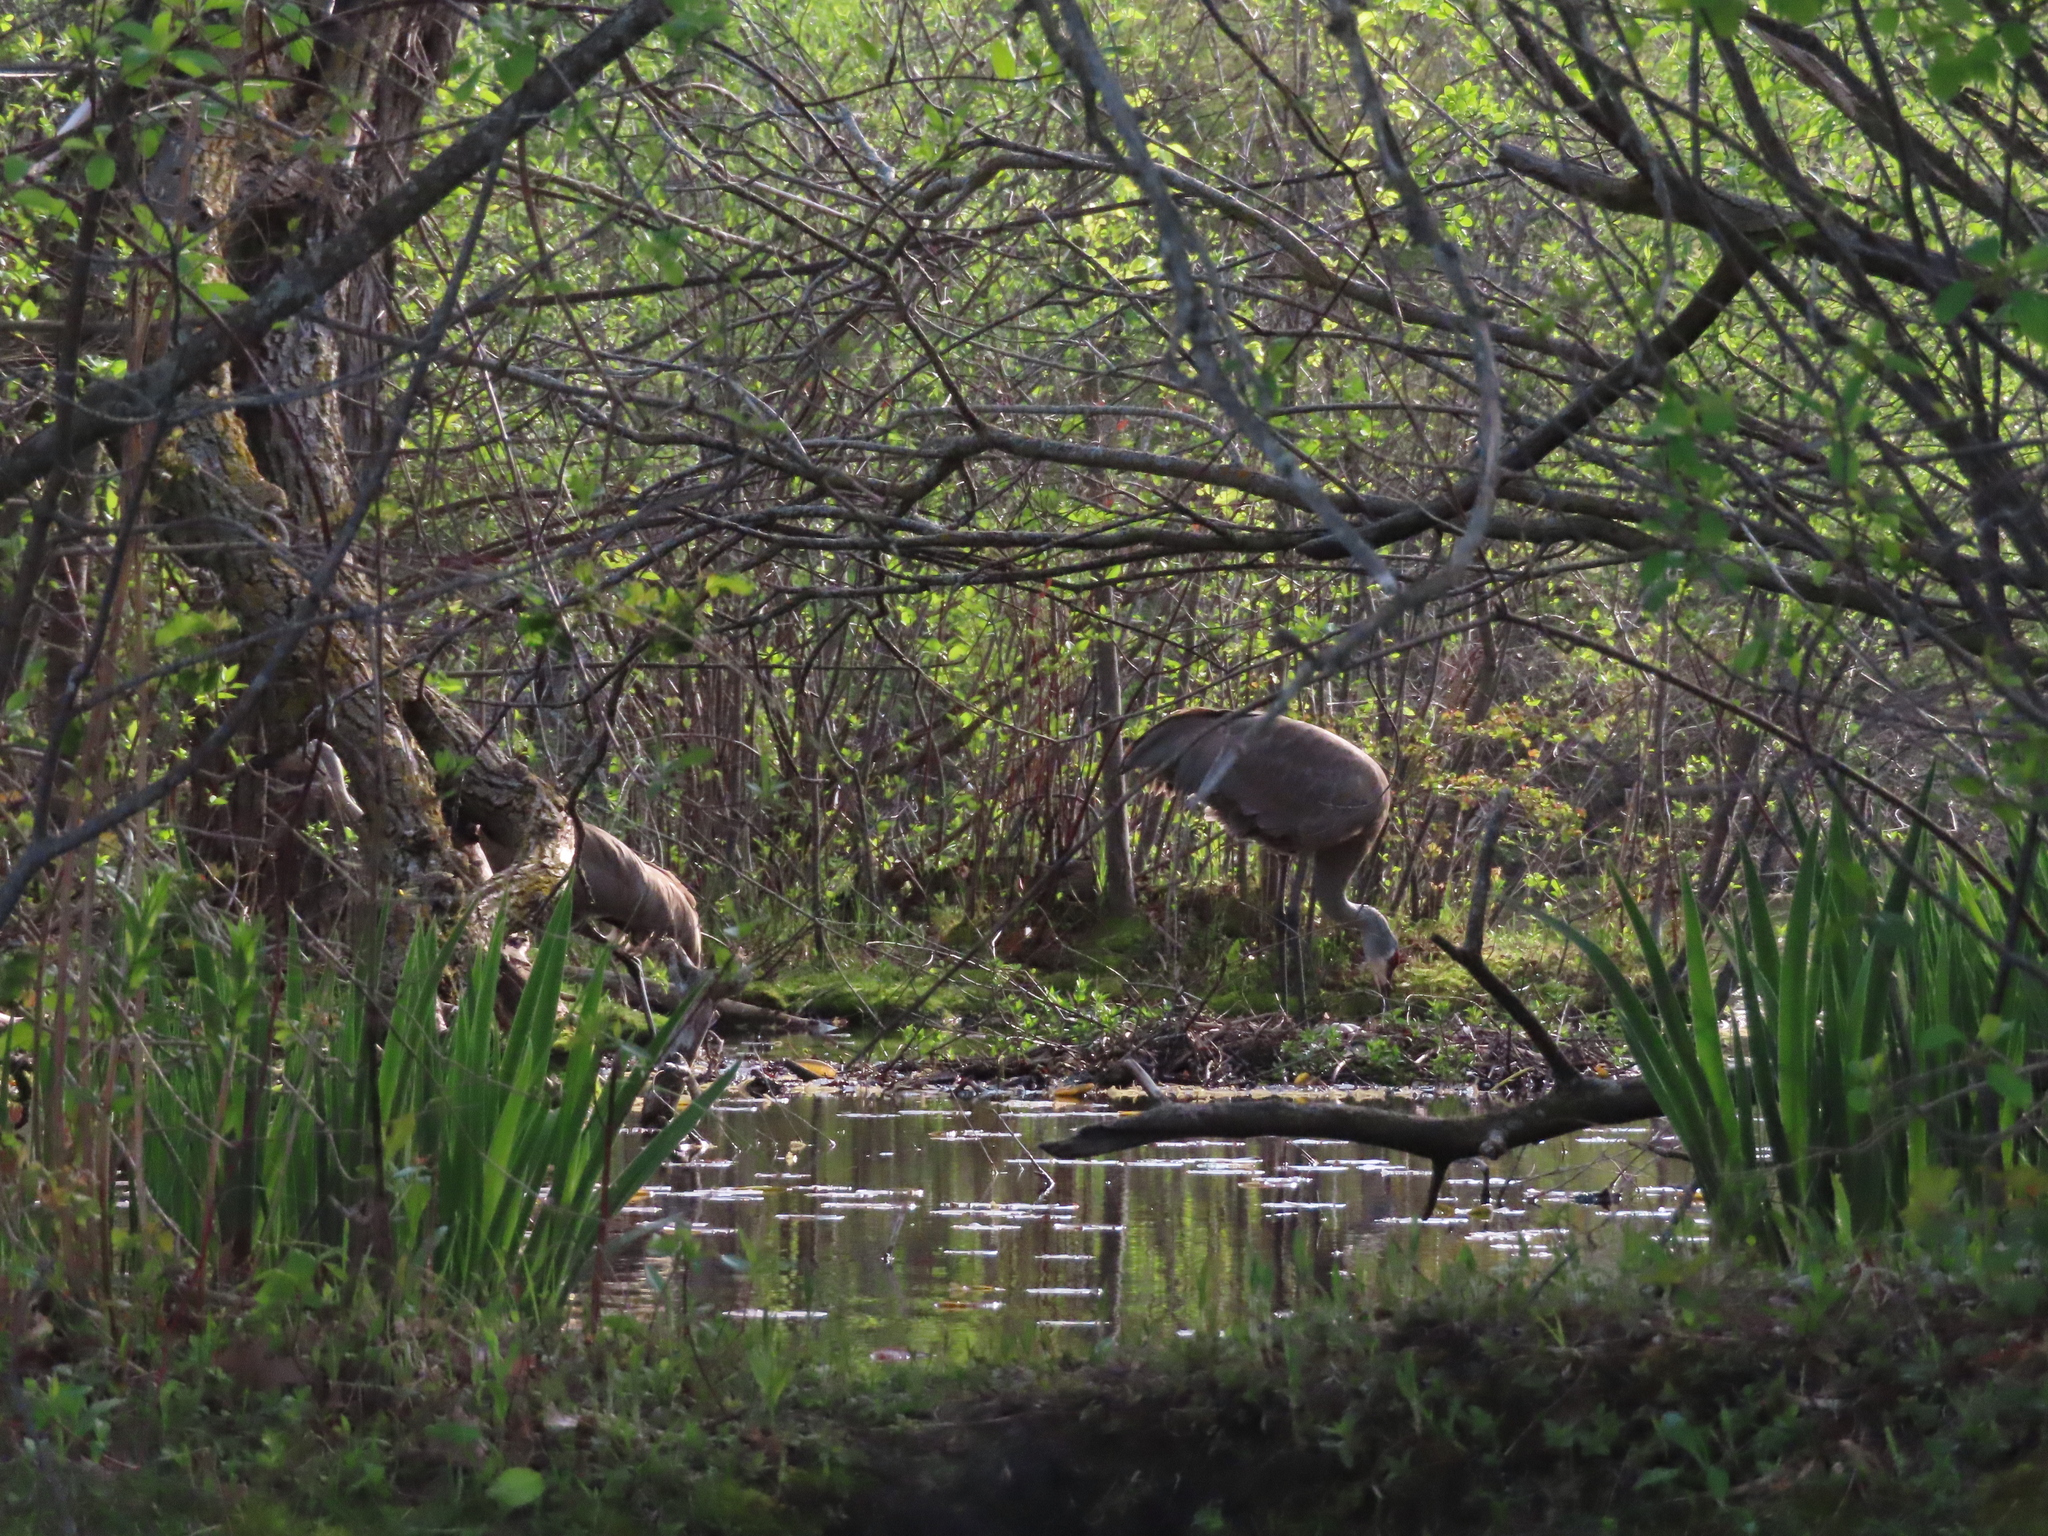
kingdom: Animalia
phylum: Chordata
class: Aves
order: Gruiformes
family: Gruidae
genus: Grus
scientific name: Grus canadensis
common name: Sandhill crane
